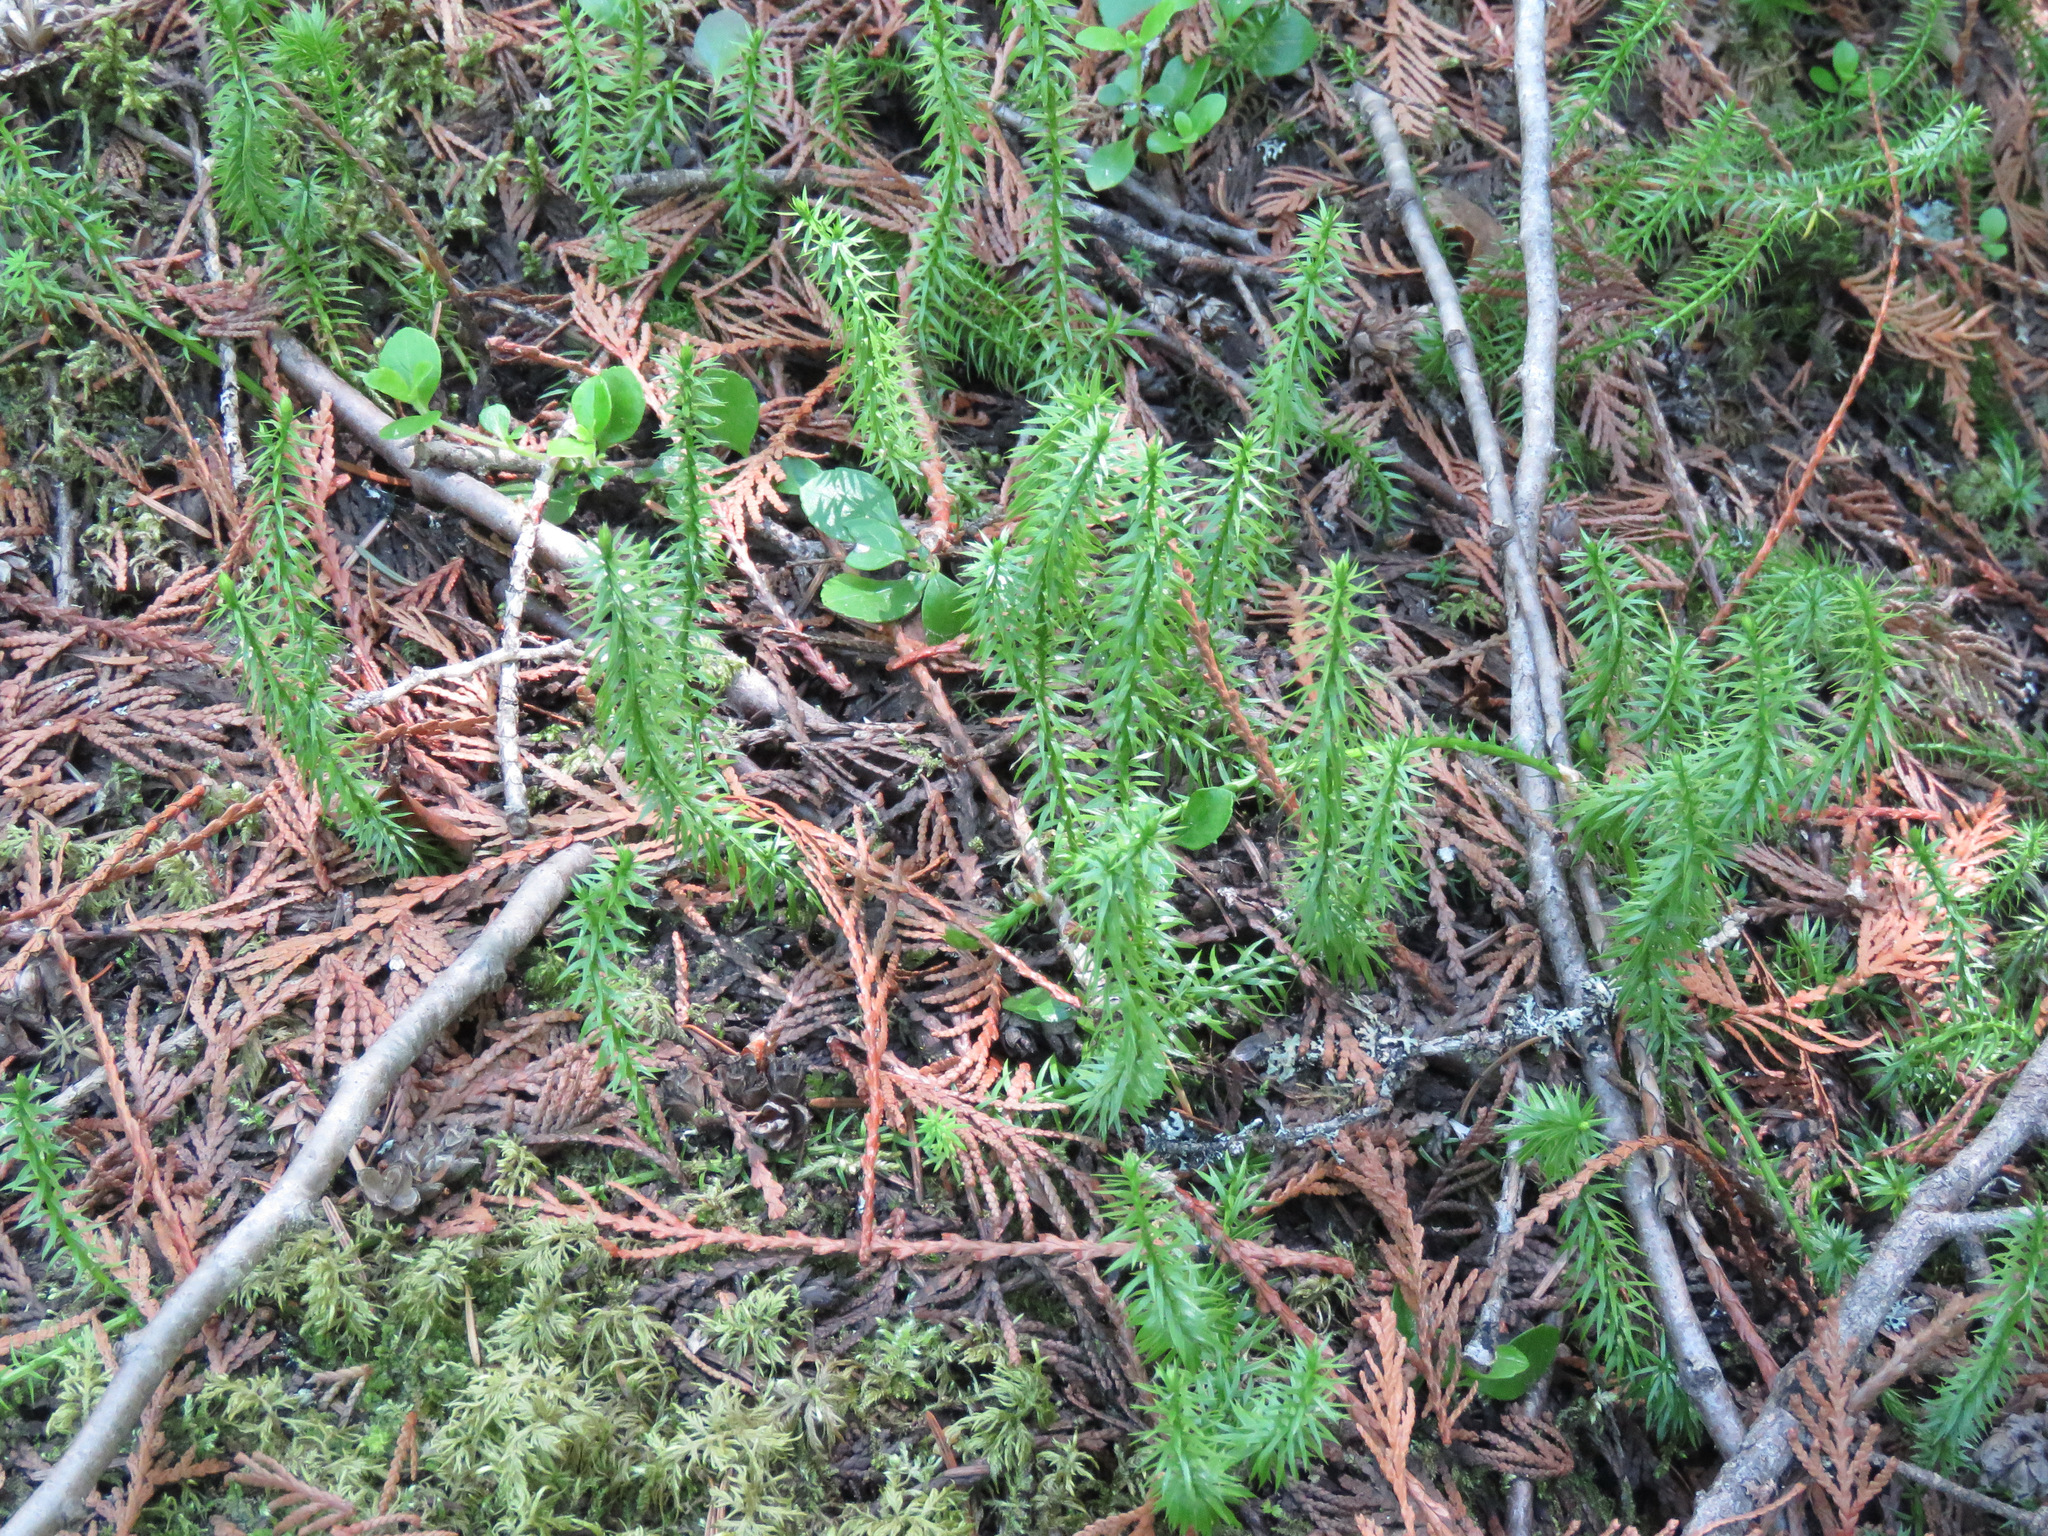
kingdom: Plantae
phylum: Tracheophyta
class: Lycopodiopsida
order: Lycopodiales
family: Lycopodiaceae
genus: Spinulum
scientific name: Spinulum annotinum
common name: Interrupted club-moss
